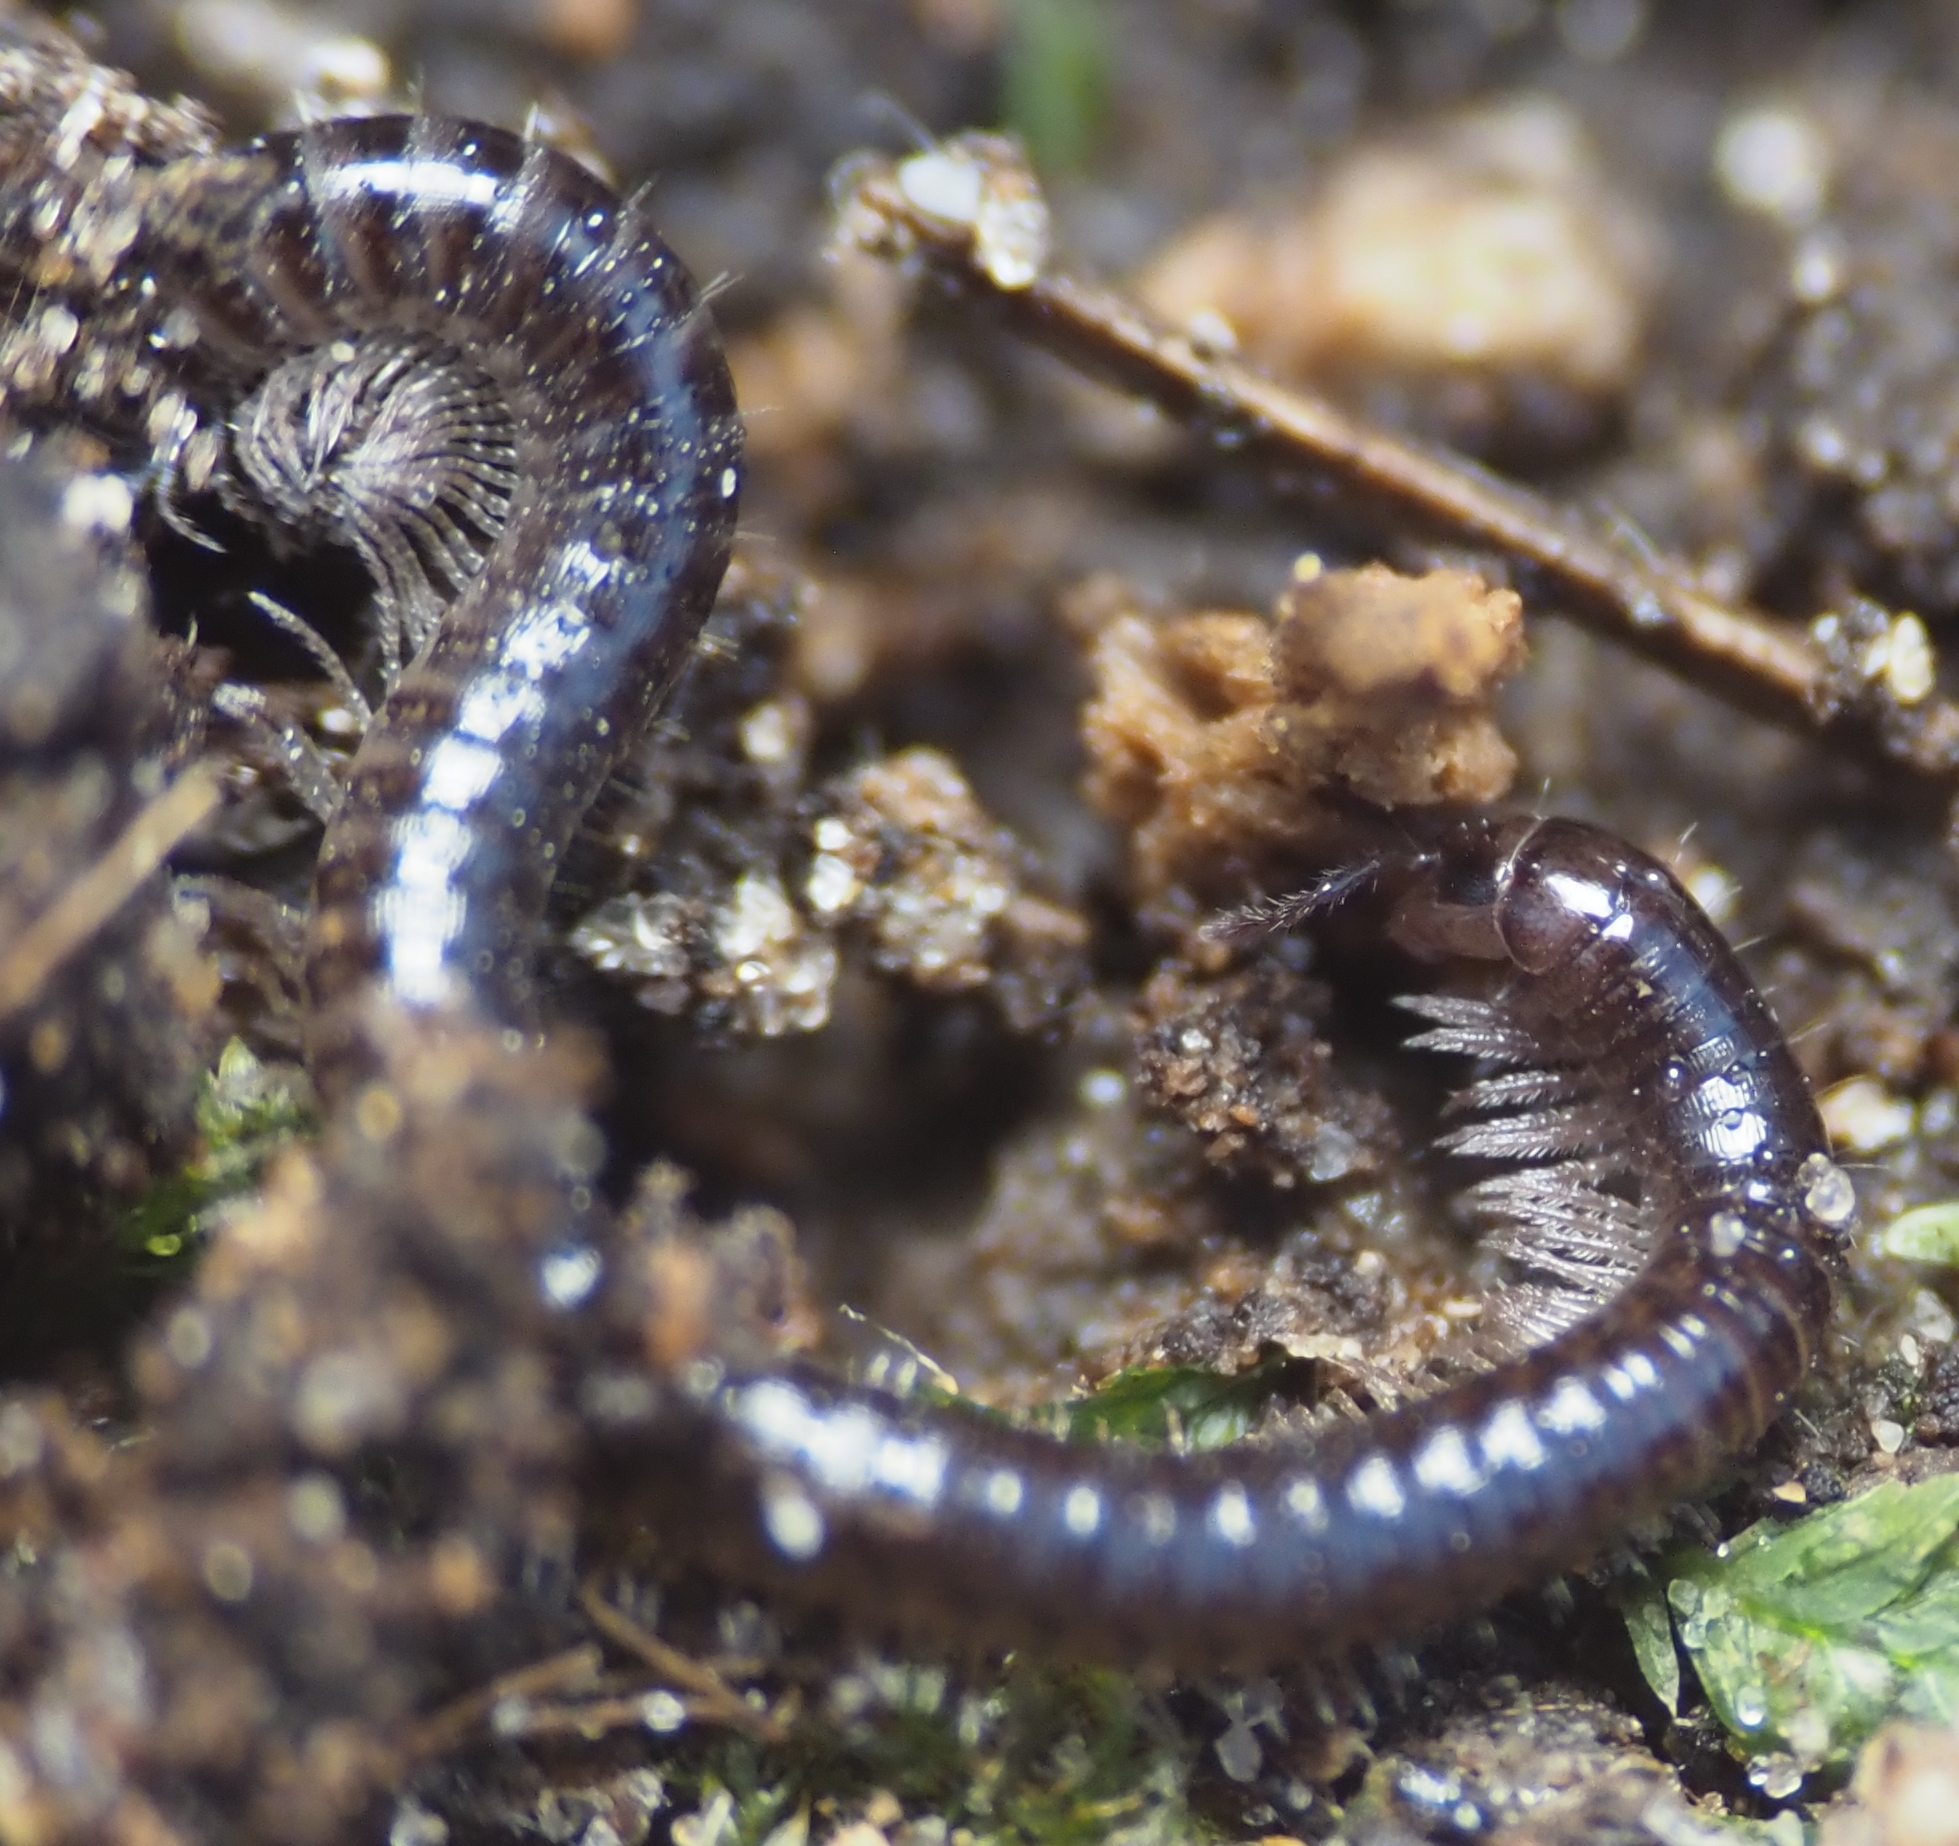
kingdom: Animalia
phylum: Arthropoda
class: Diplopoda
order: Julida
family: Julidae
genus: Ophyiulus
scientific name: Ophyiulus pilosus
